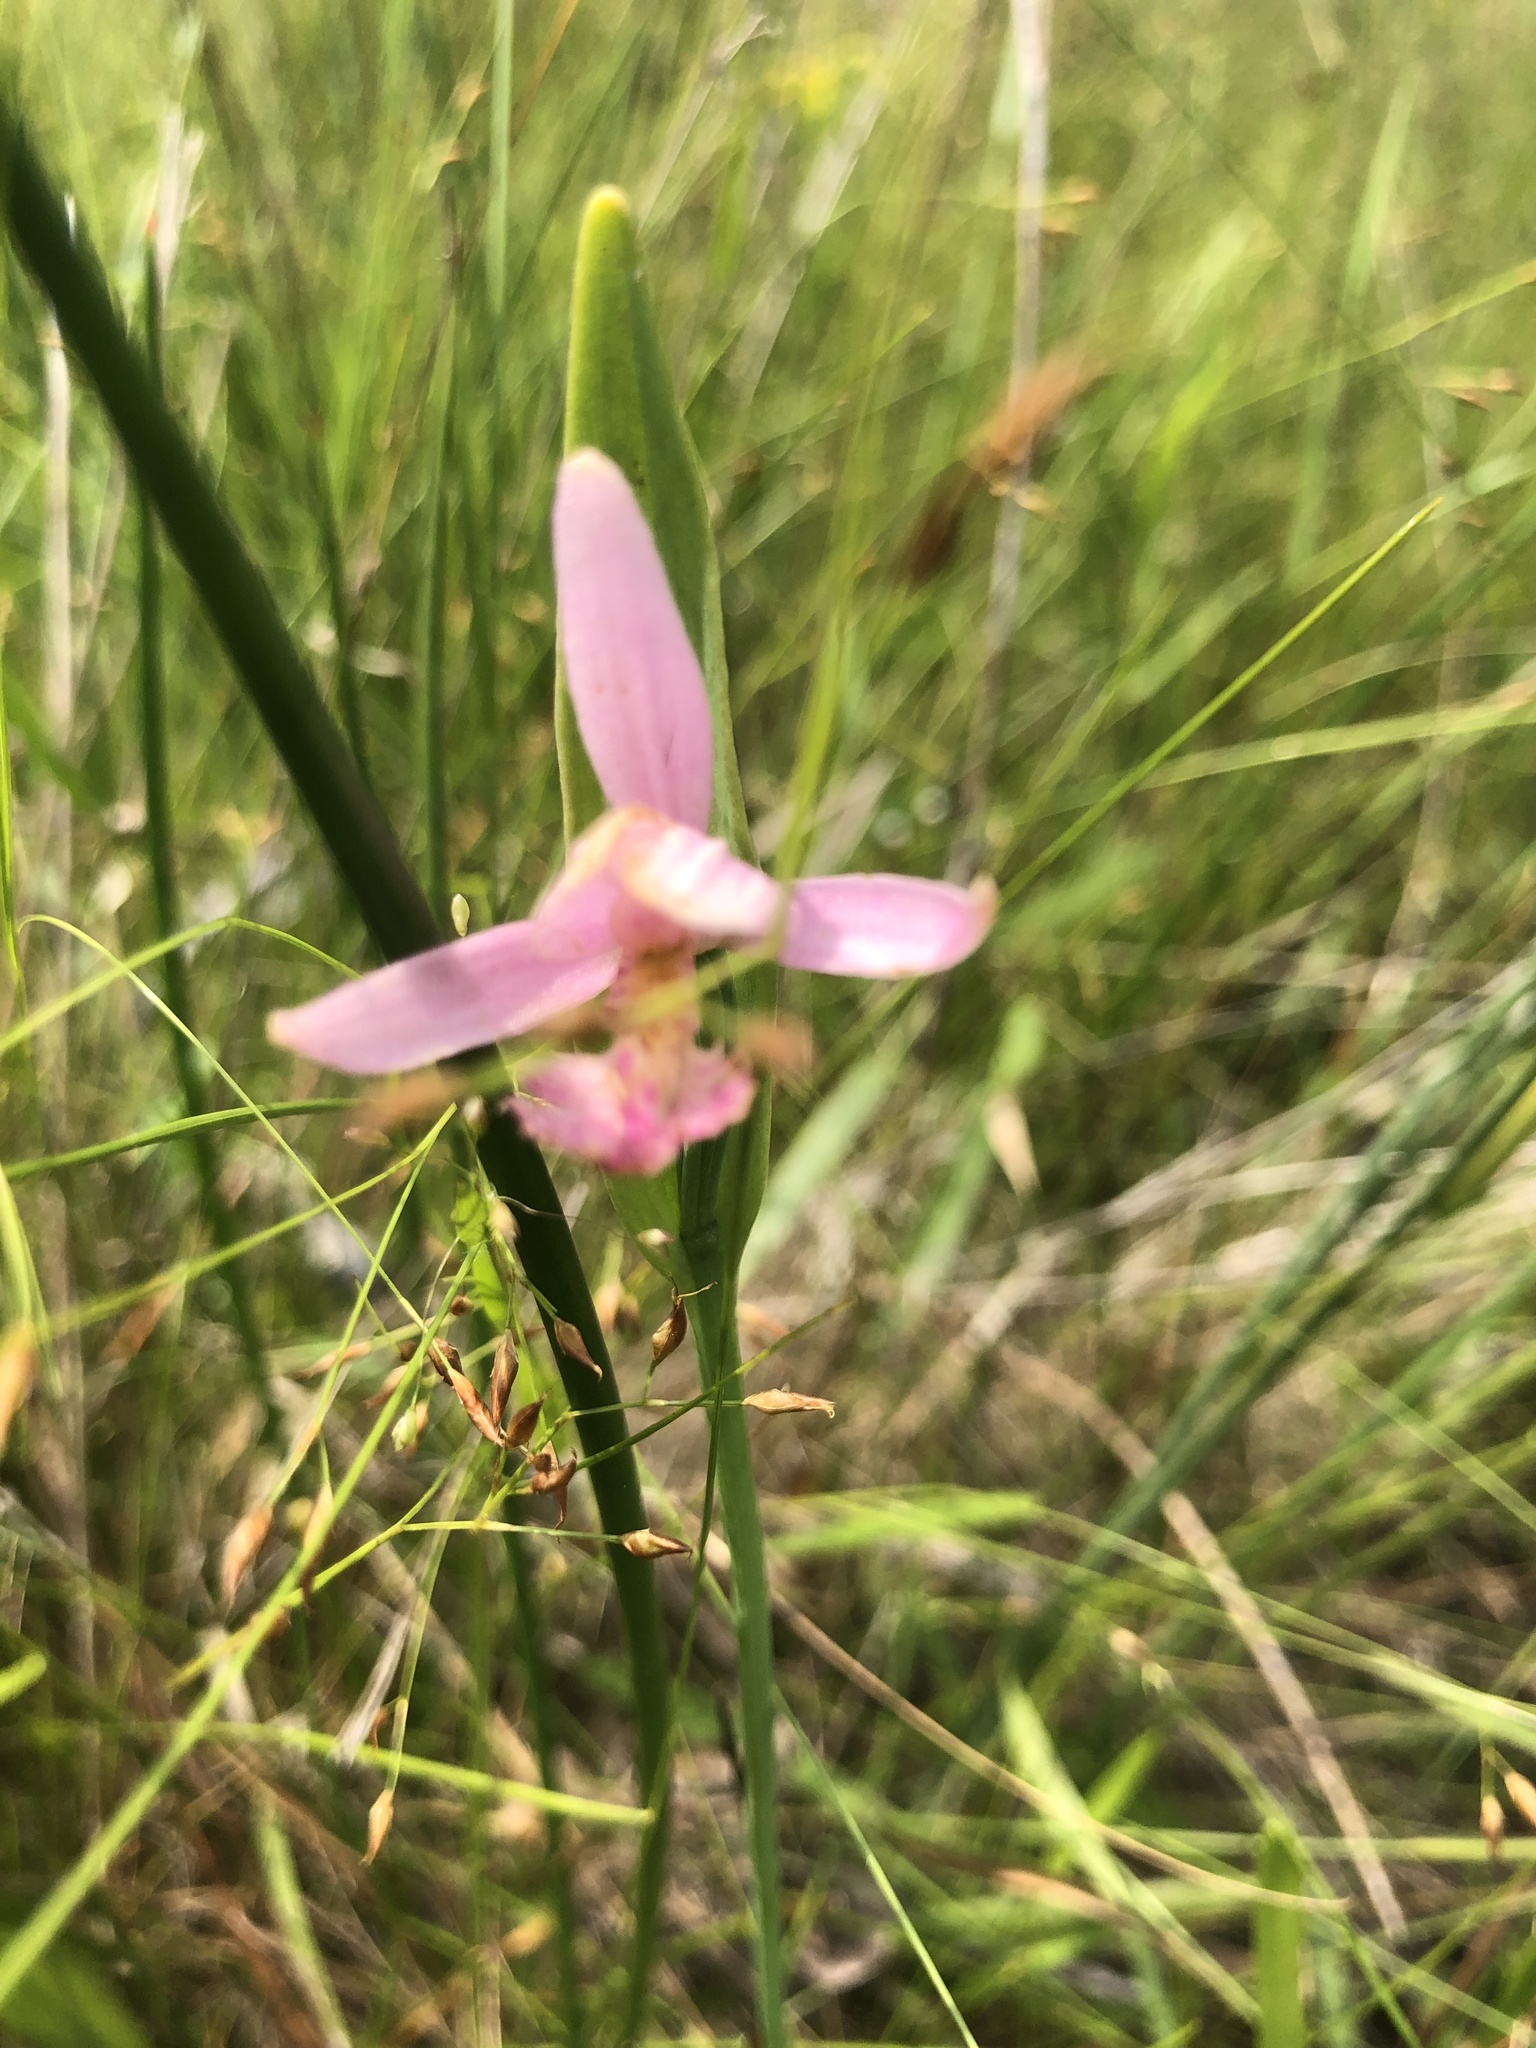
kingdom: Plantae
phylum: Tracheophyta
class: Liliopsida
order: Asparagales
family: Orchidaceae
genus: Pogonia
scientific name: Pogonia ophioglossoides
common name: Rose pogonia
